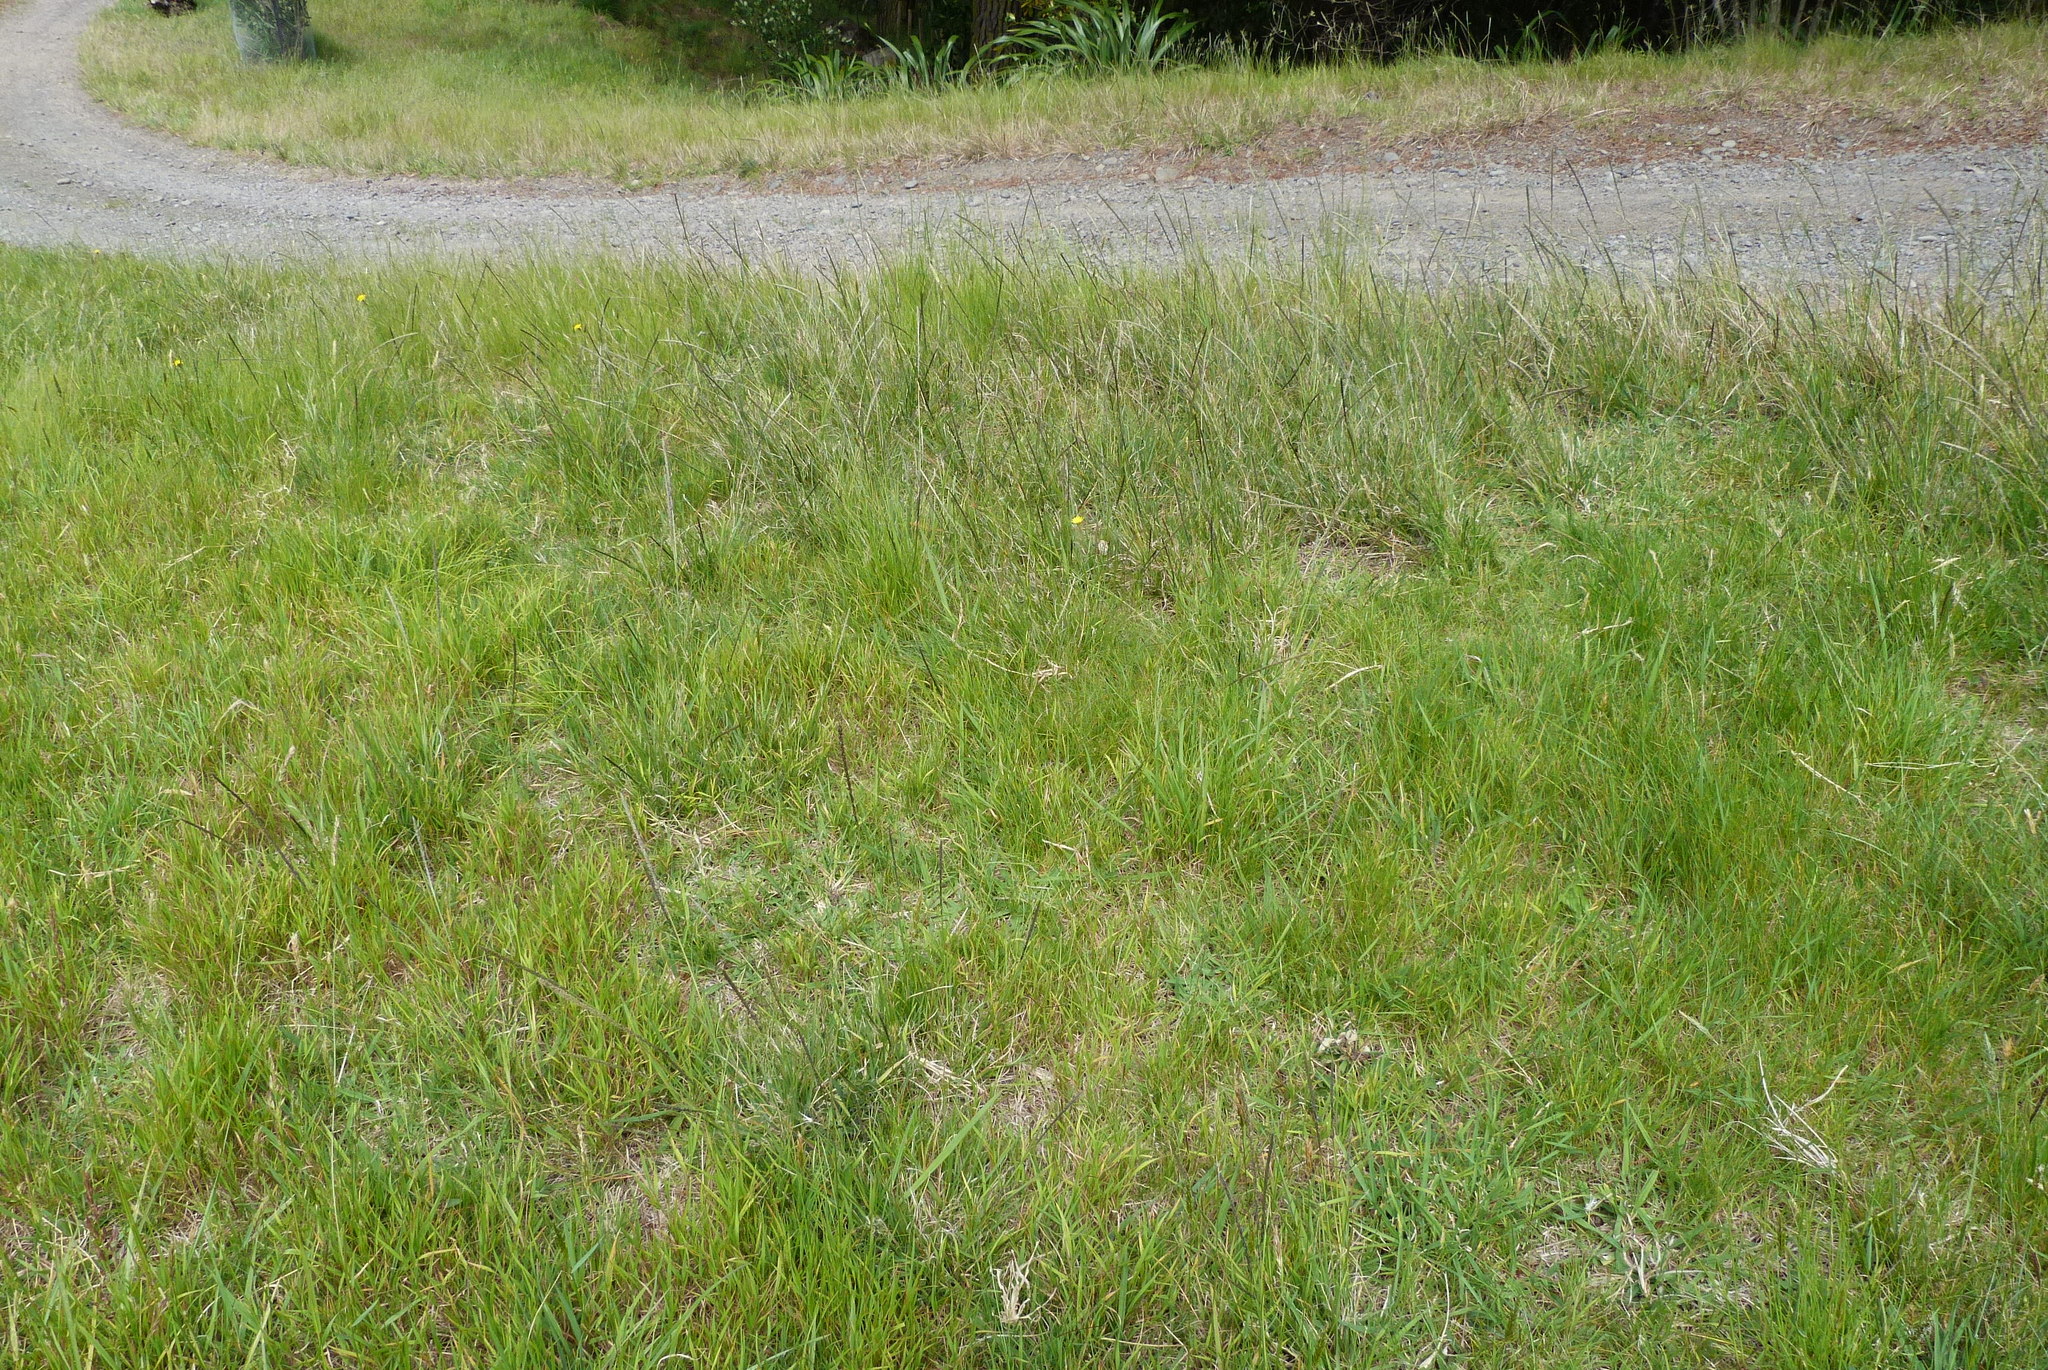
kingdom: Plantae
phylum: Tracheophyta
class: Liliopsida
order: Poales
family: Poaceae
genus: Sporobolus
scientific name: Sporobolus africanus
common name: African dropseed
